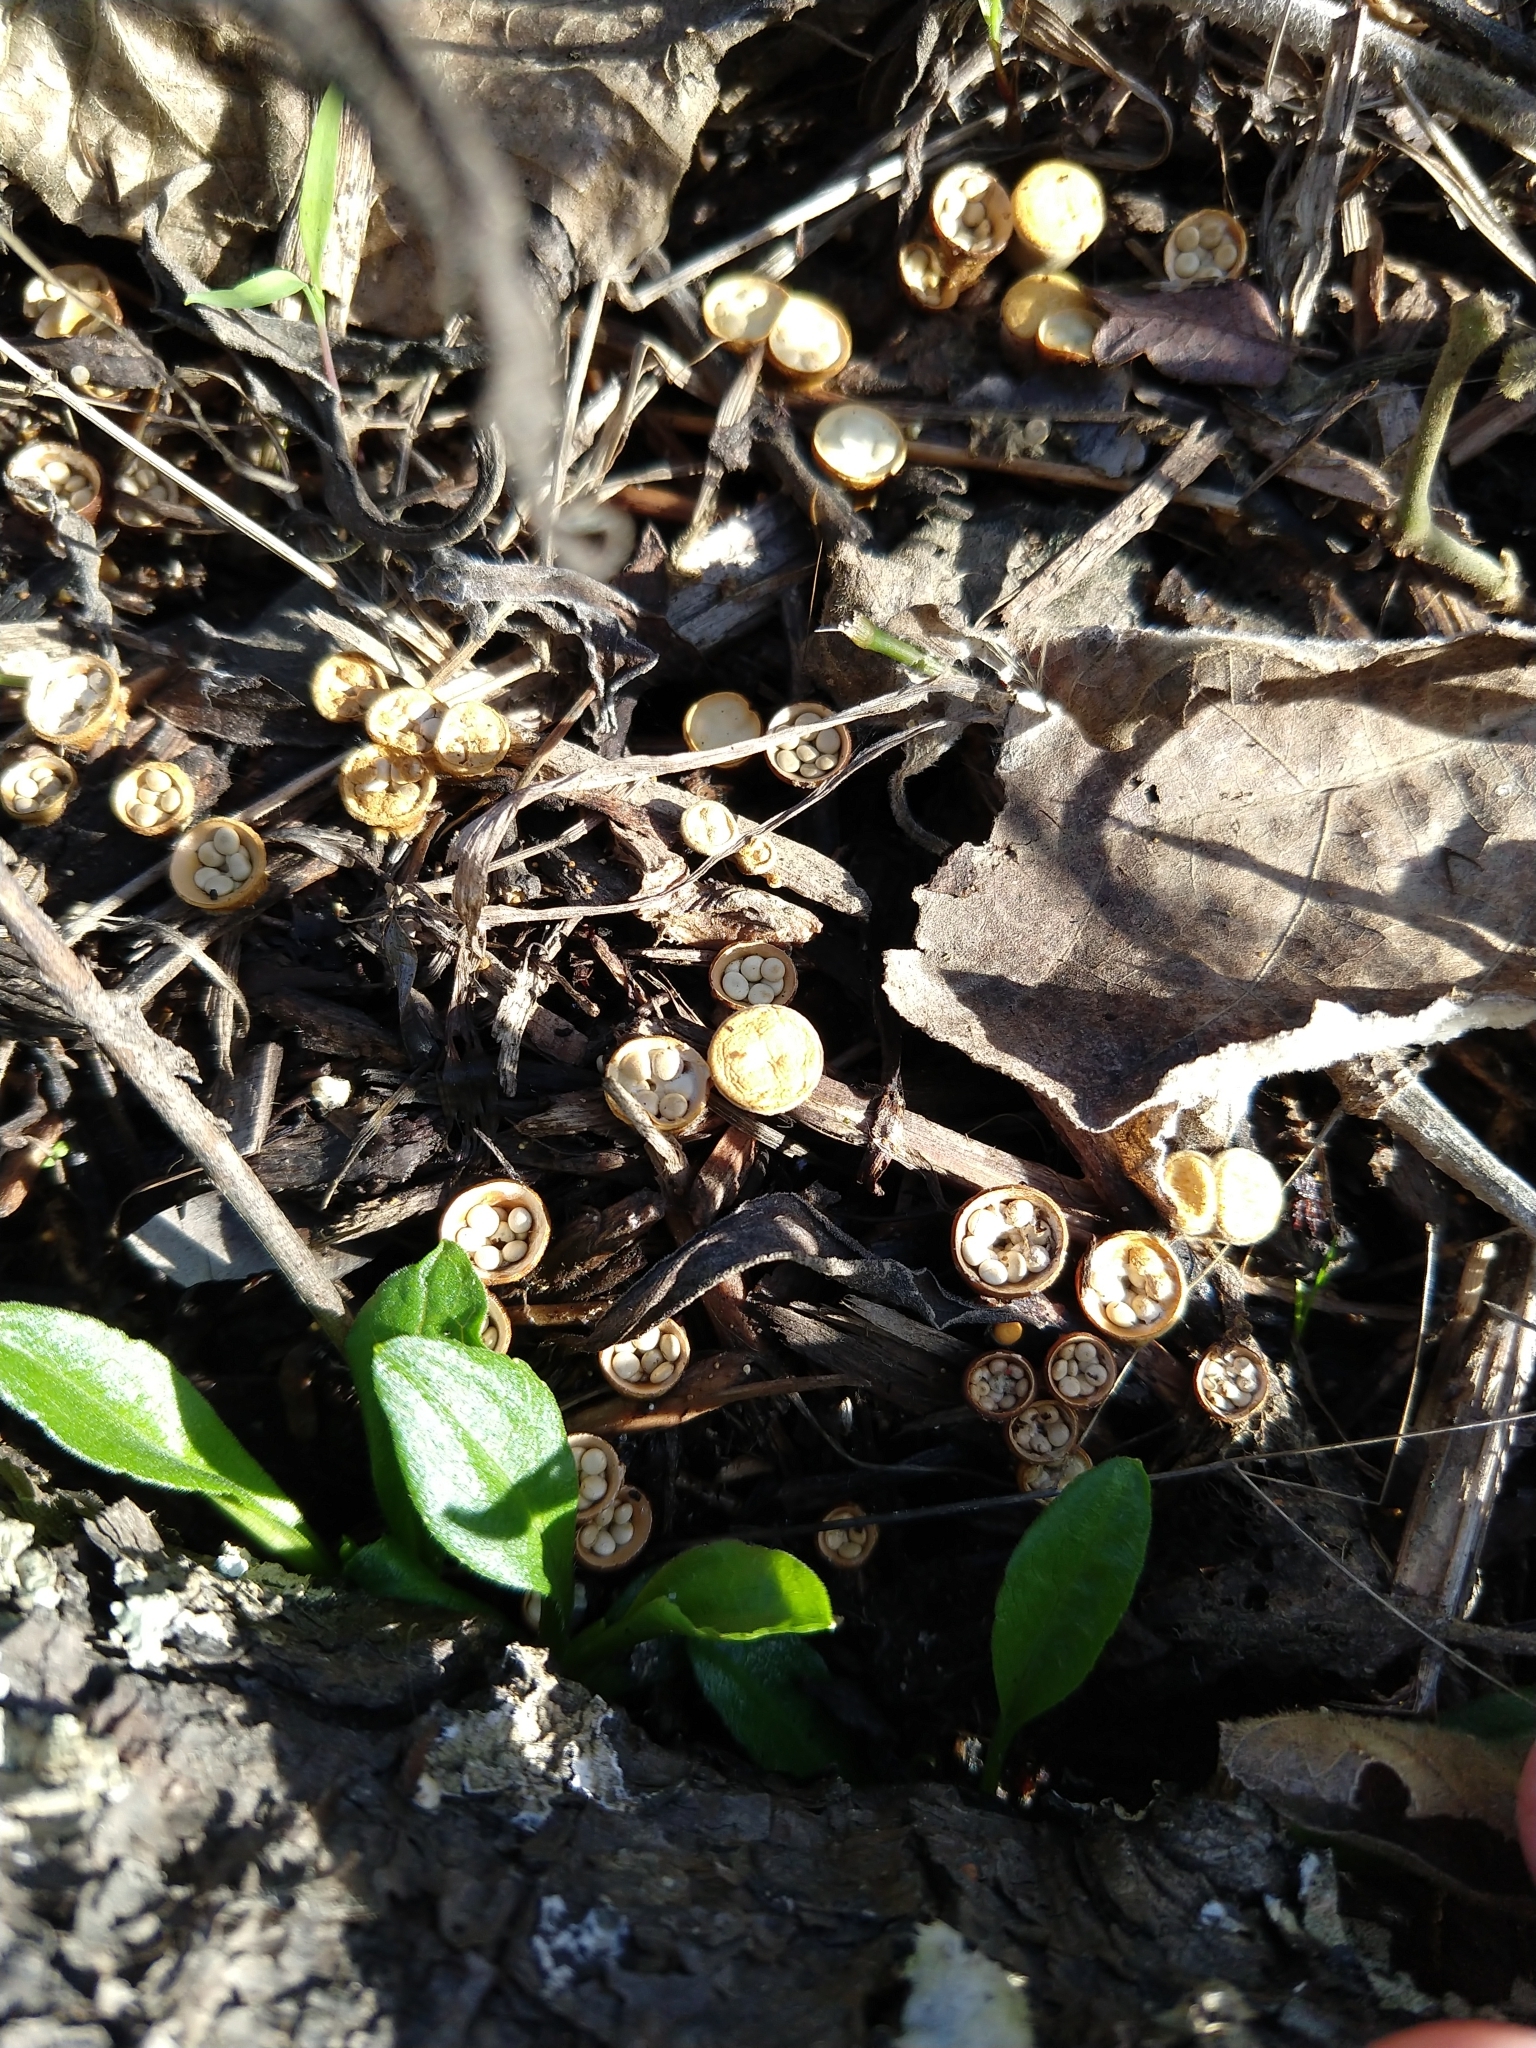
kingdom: Fungi
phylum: Basidiomycota
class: Agaricomycetes
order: Agaricales
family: Nidulariaceae
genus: Crucibulum
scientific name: Crucibulum laeve
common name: Common bird's nest
